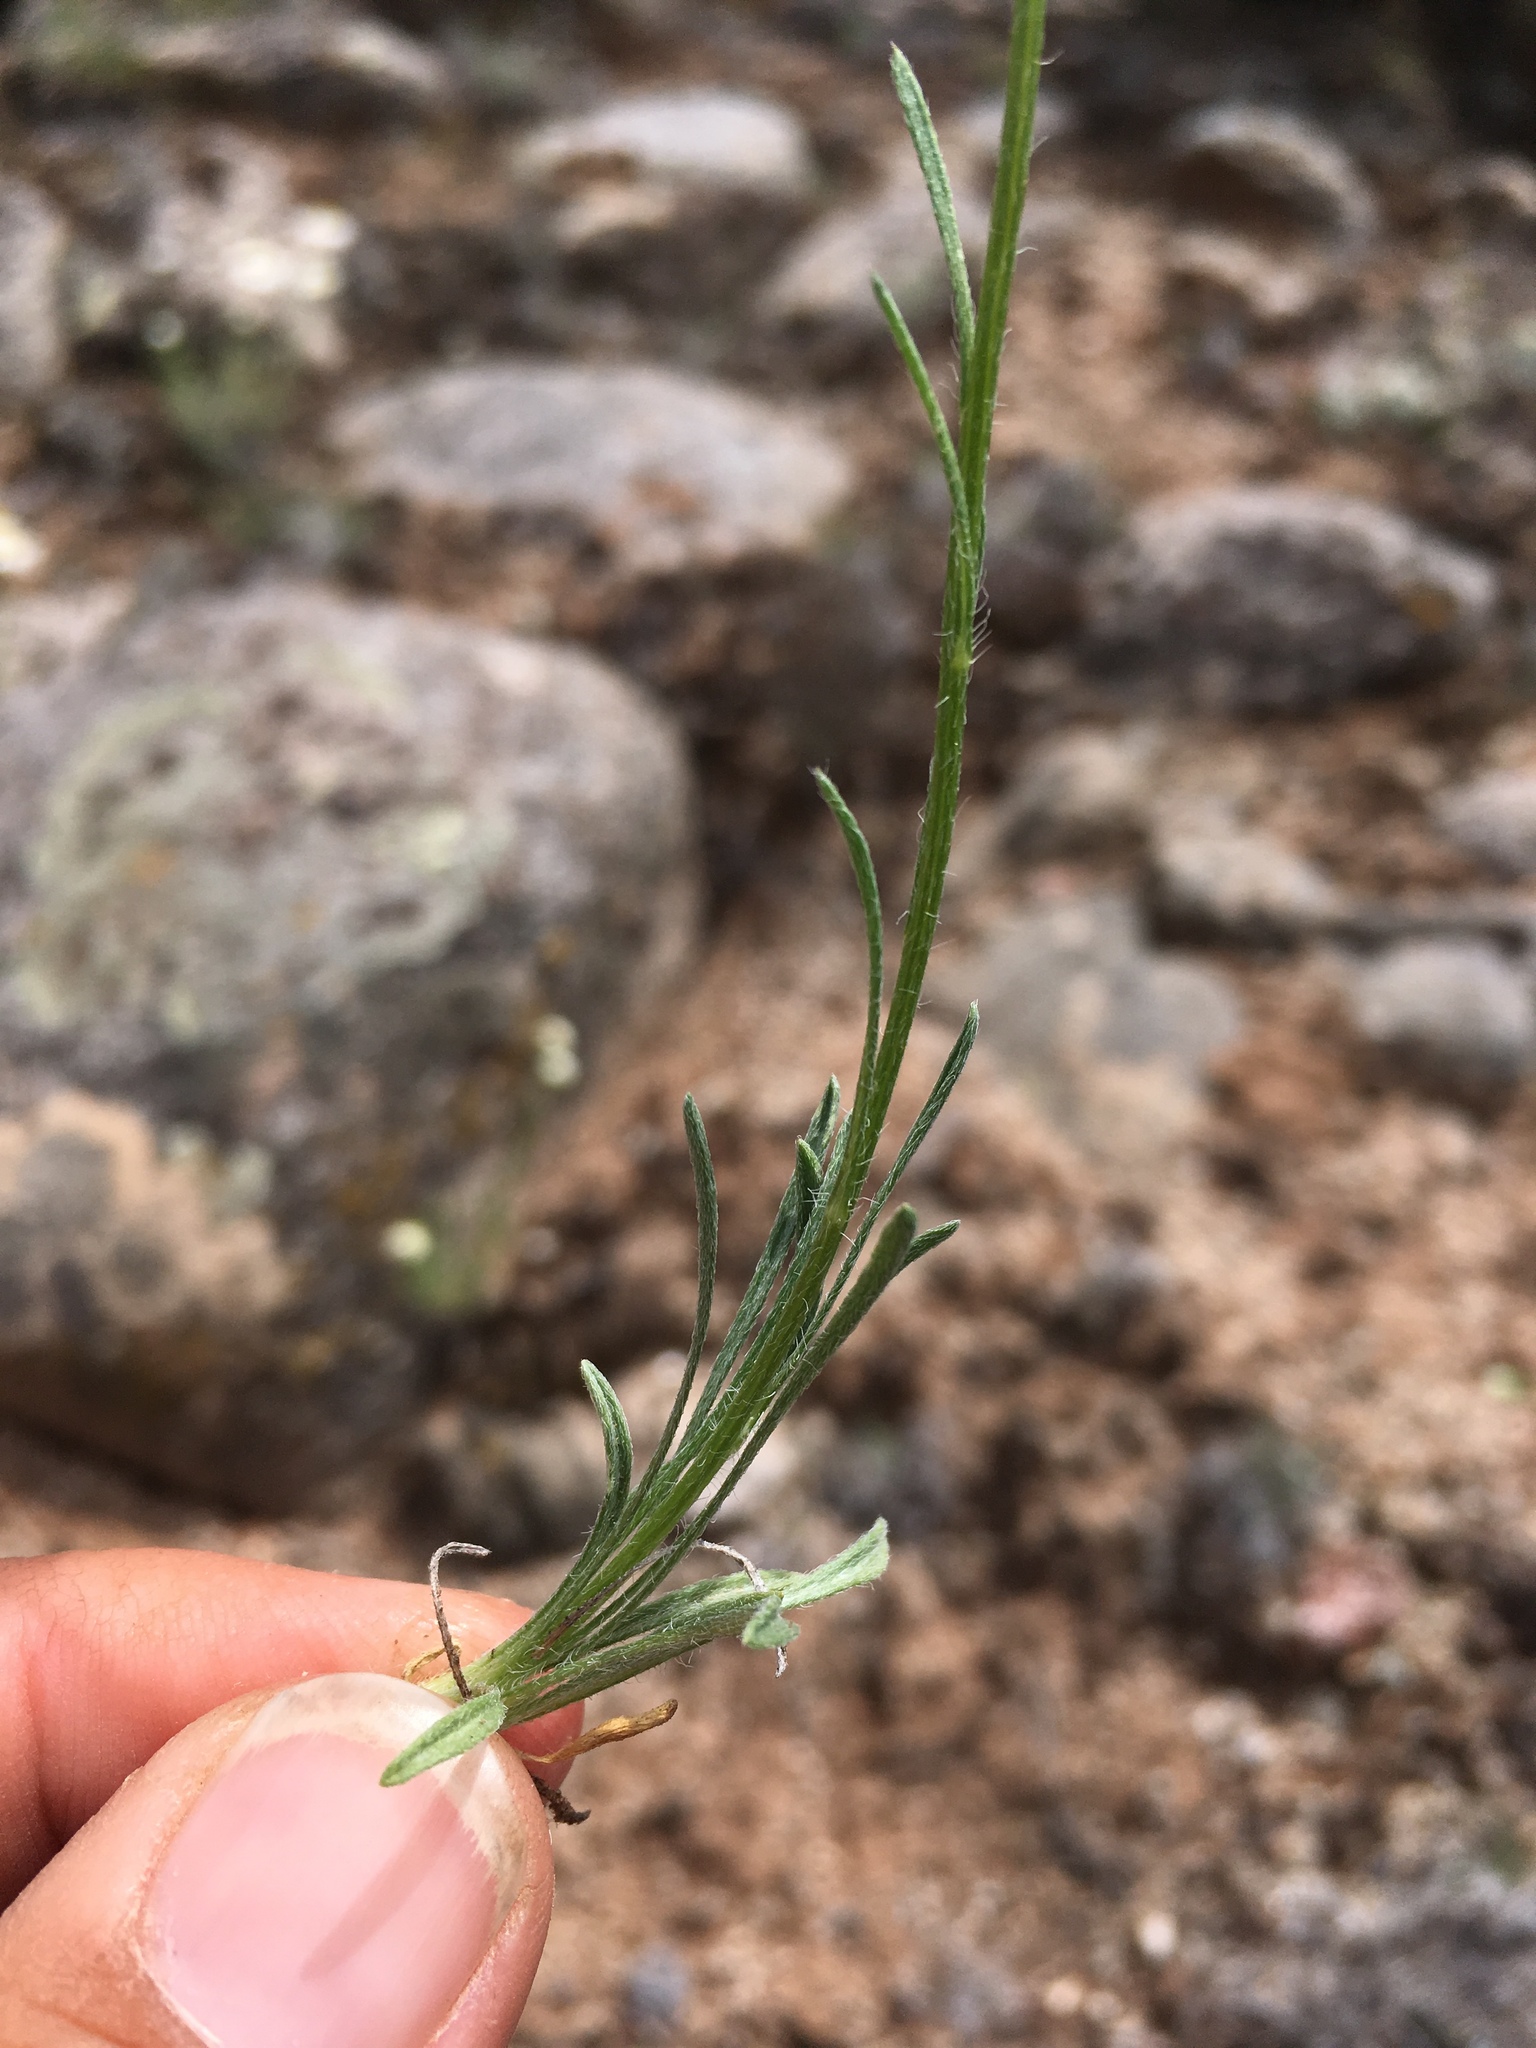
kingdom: Plantae
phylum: Tracheophyta
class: Magnoliopsida
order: Asterales
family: Asteraceae
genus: Erigeron
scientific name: Erigeron engelmannii
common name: Engelmann's fleabane
